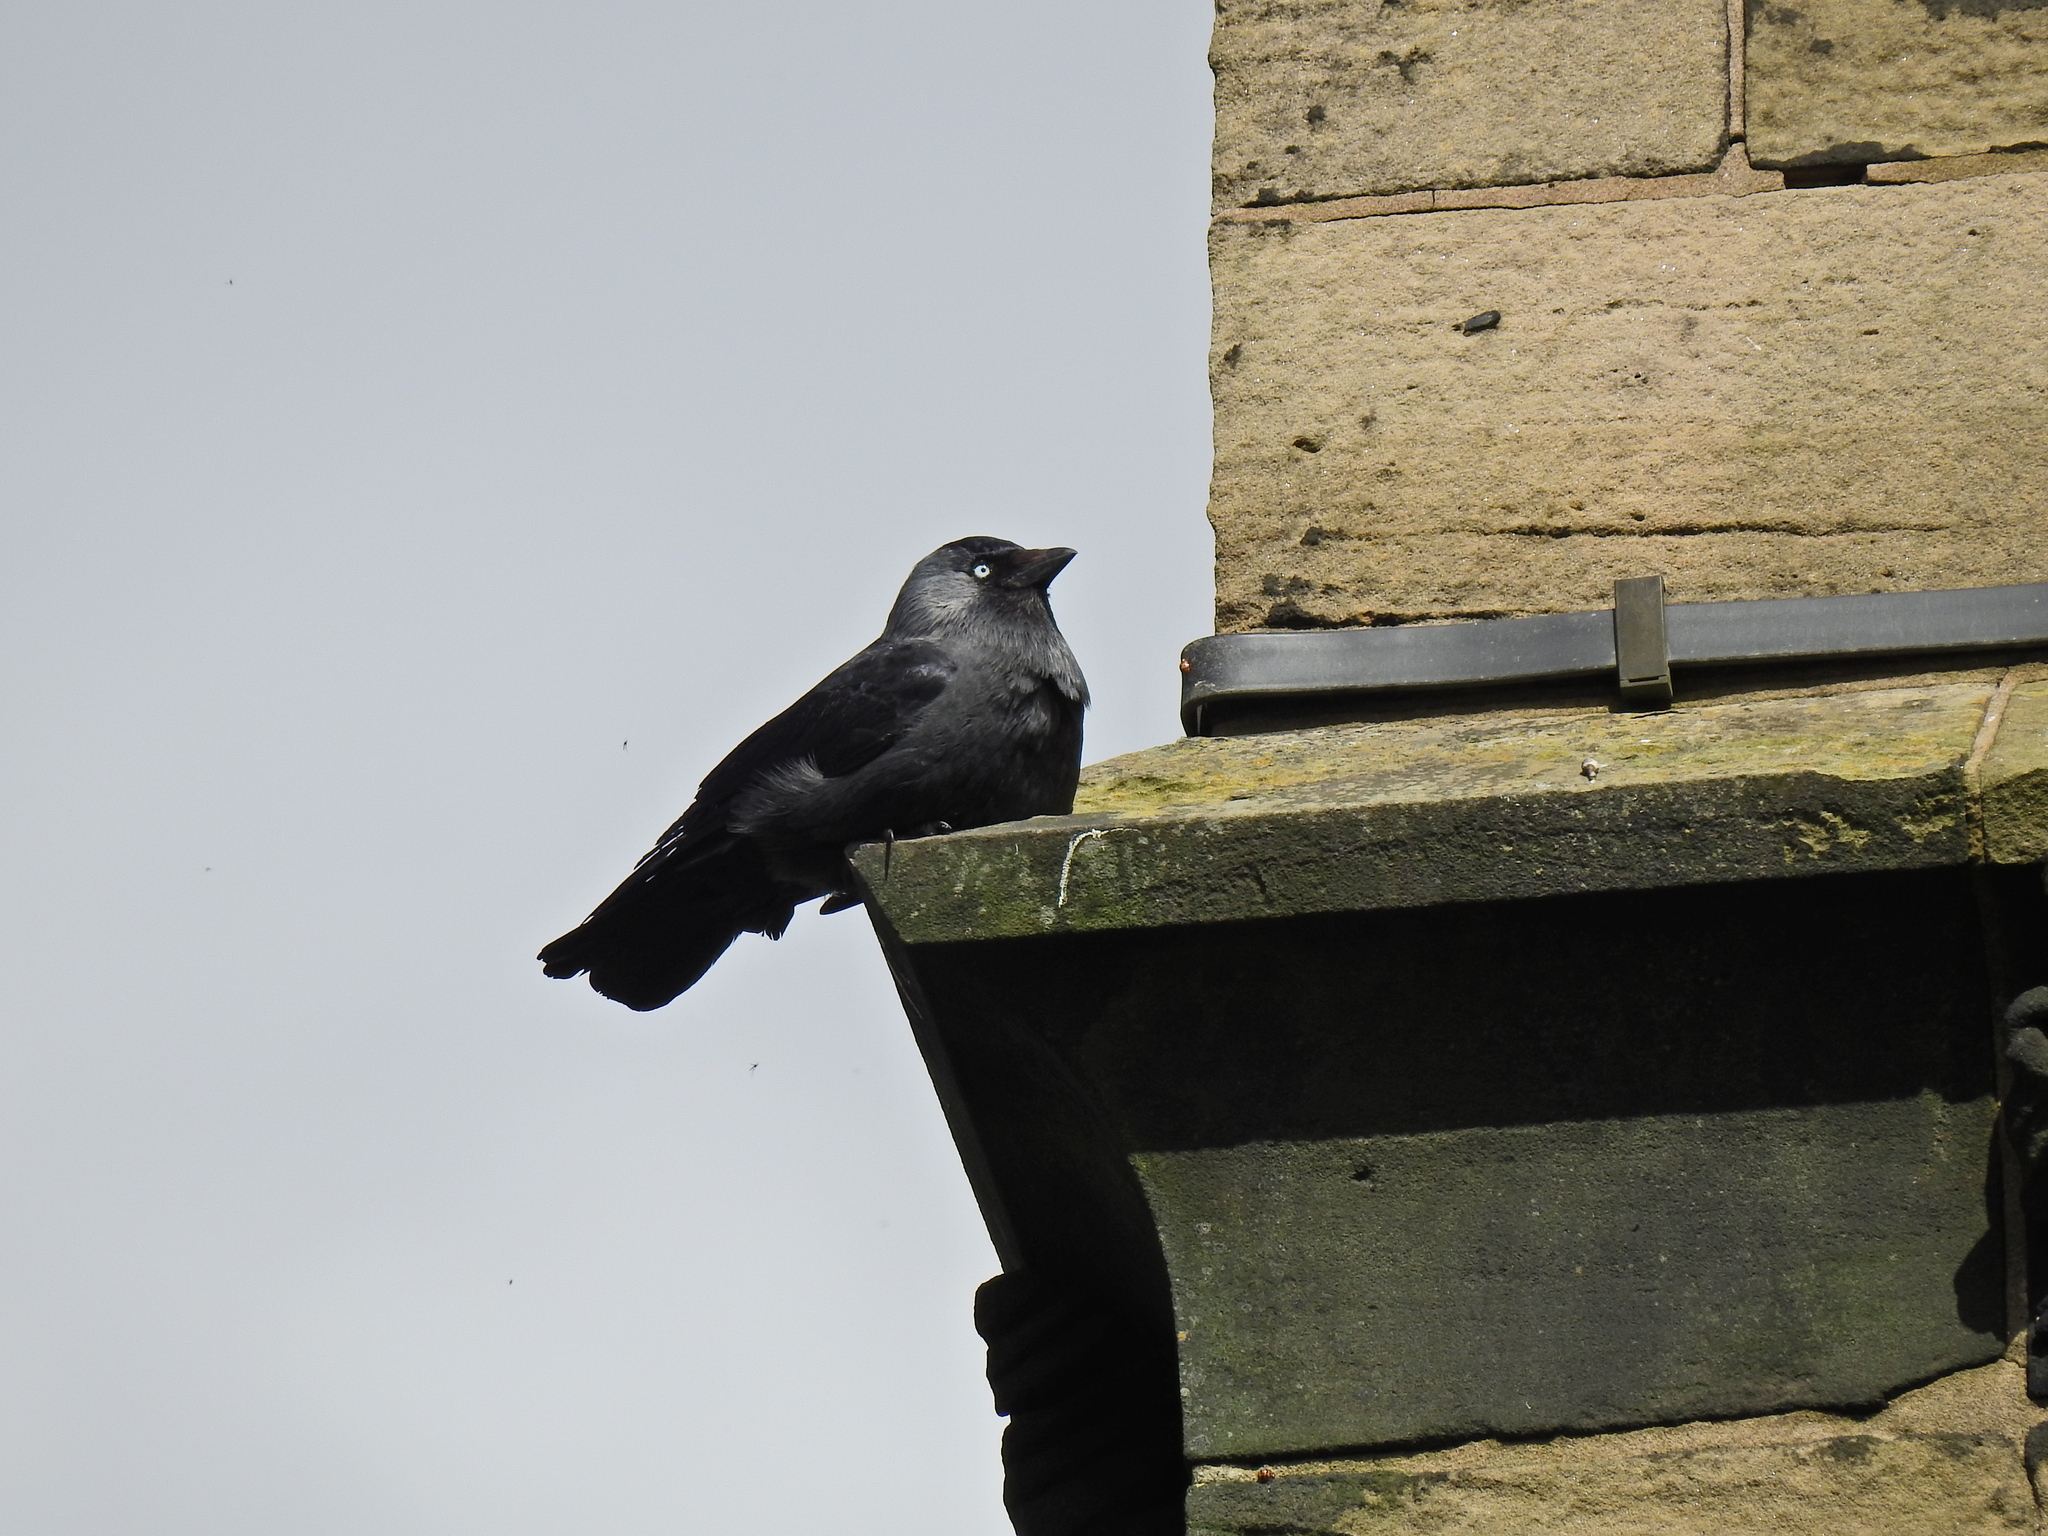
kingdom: Animalia
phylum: Chordata
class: Aves
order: Passeriformes
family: Corvidae
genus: Coloeus
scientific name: Coloeus monedula
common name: Western jackdaw
